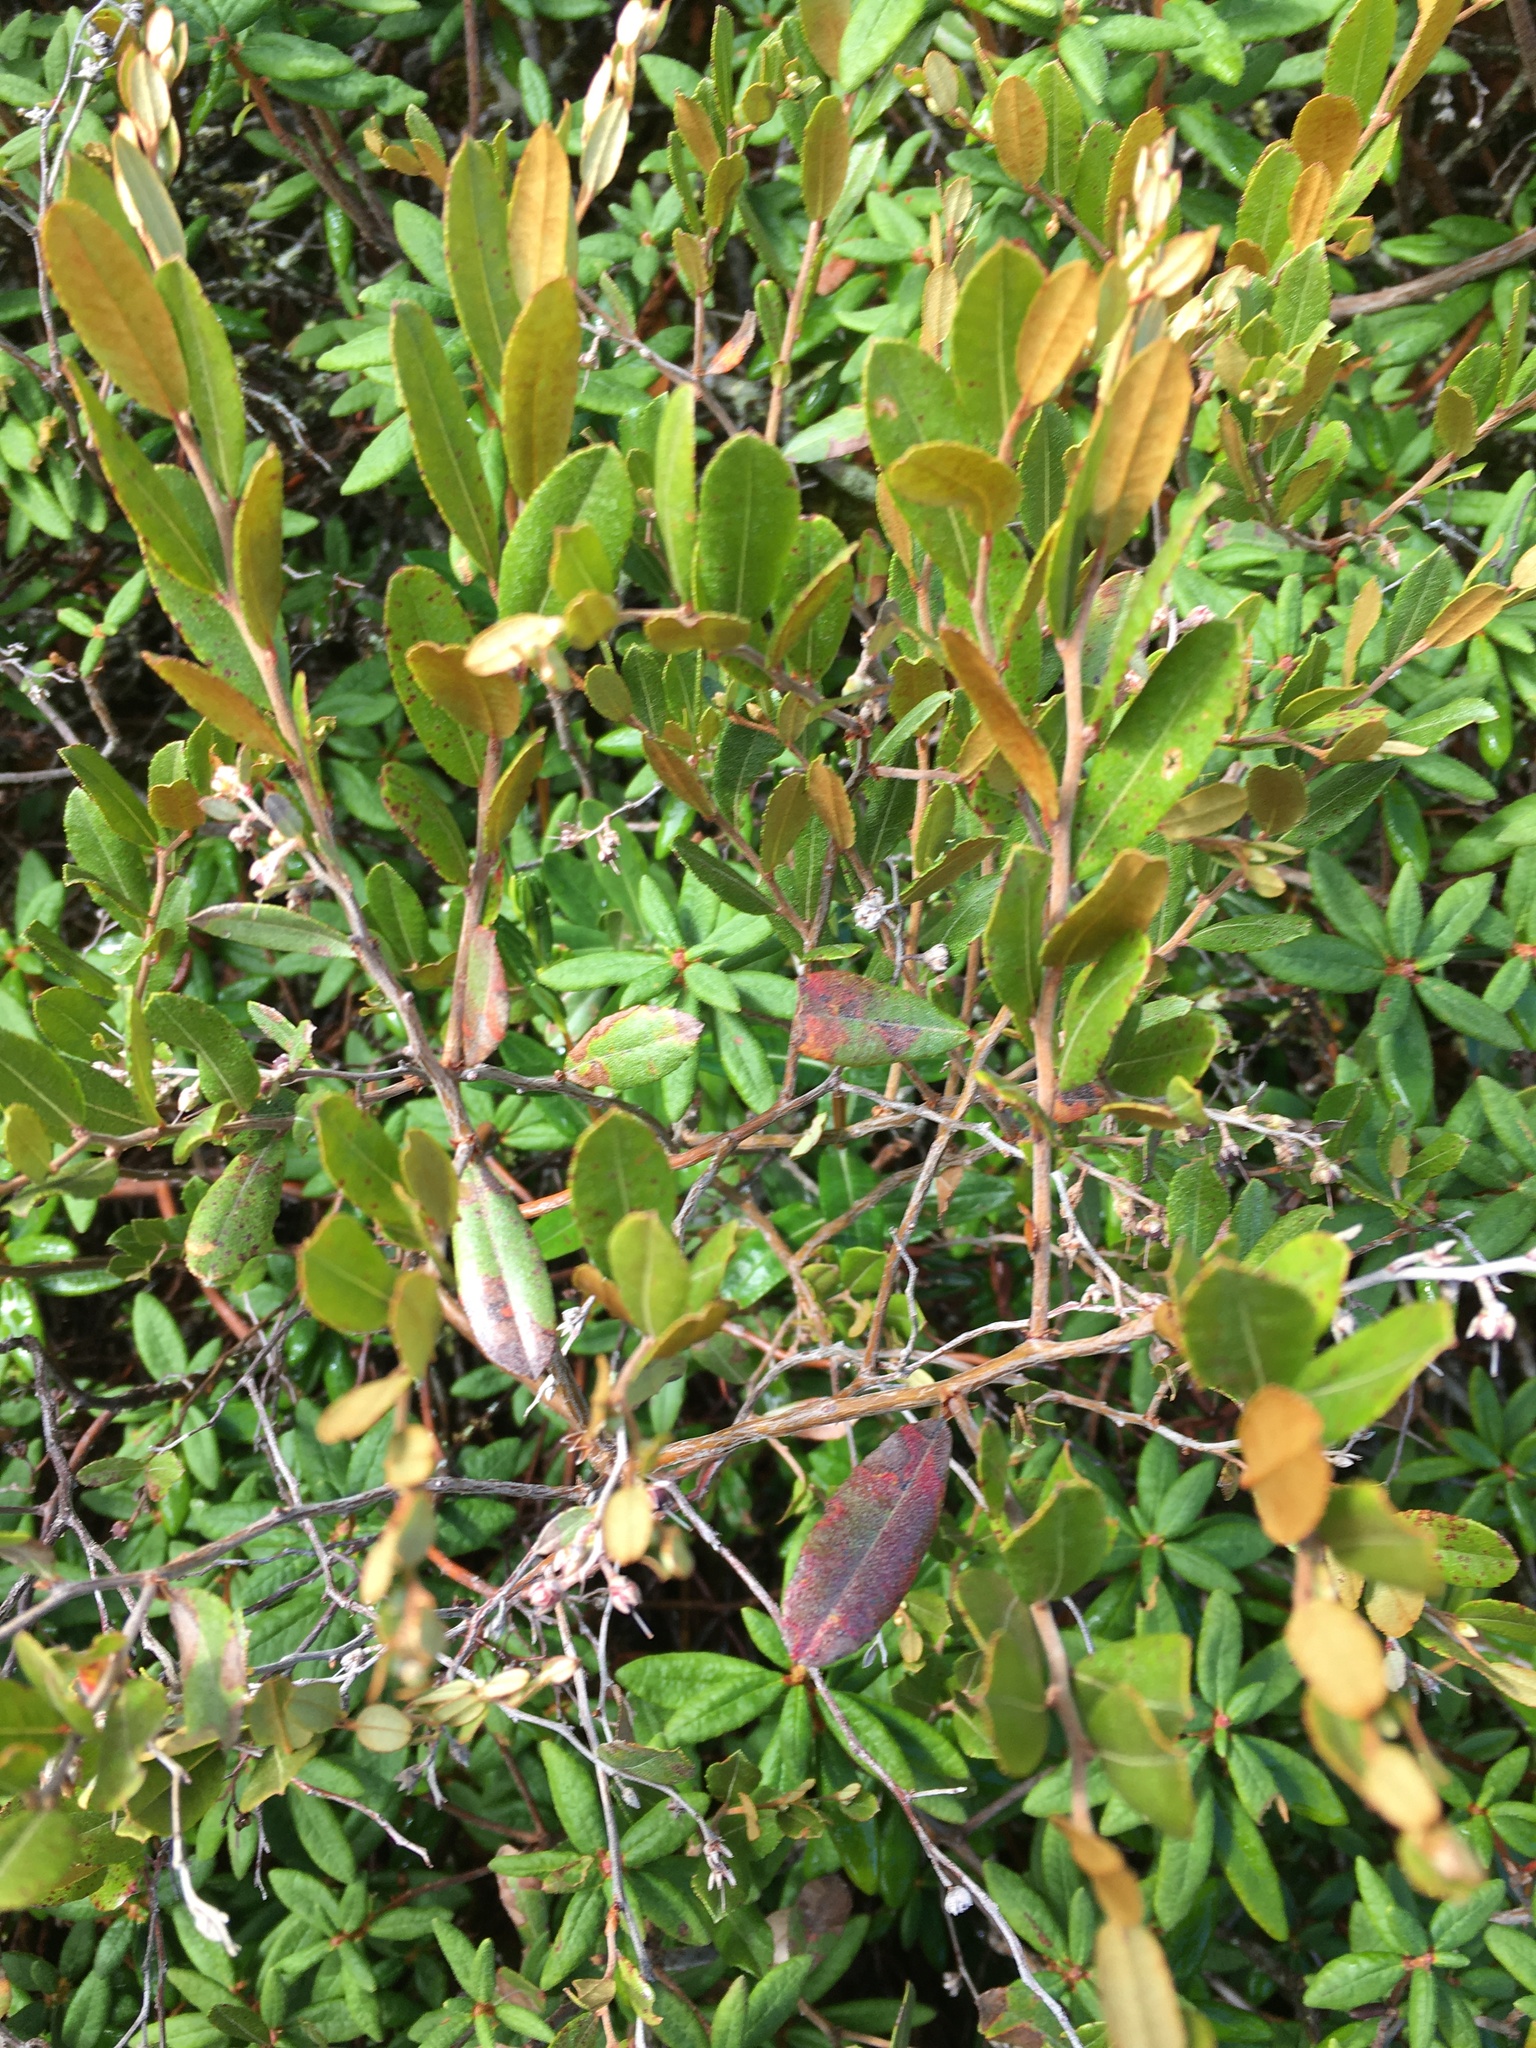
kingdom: Plantae
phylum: Tracheophyta
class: Magnoliopsida
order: Ericales
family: Ericaceae
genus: Chamaedaphne
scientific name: Chamaedaphne calyculata
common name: Leatherleaf
